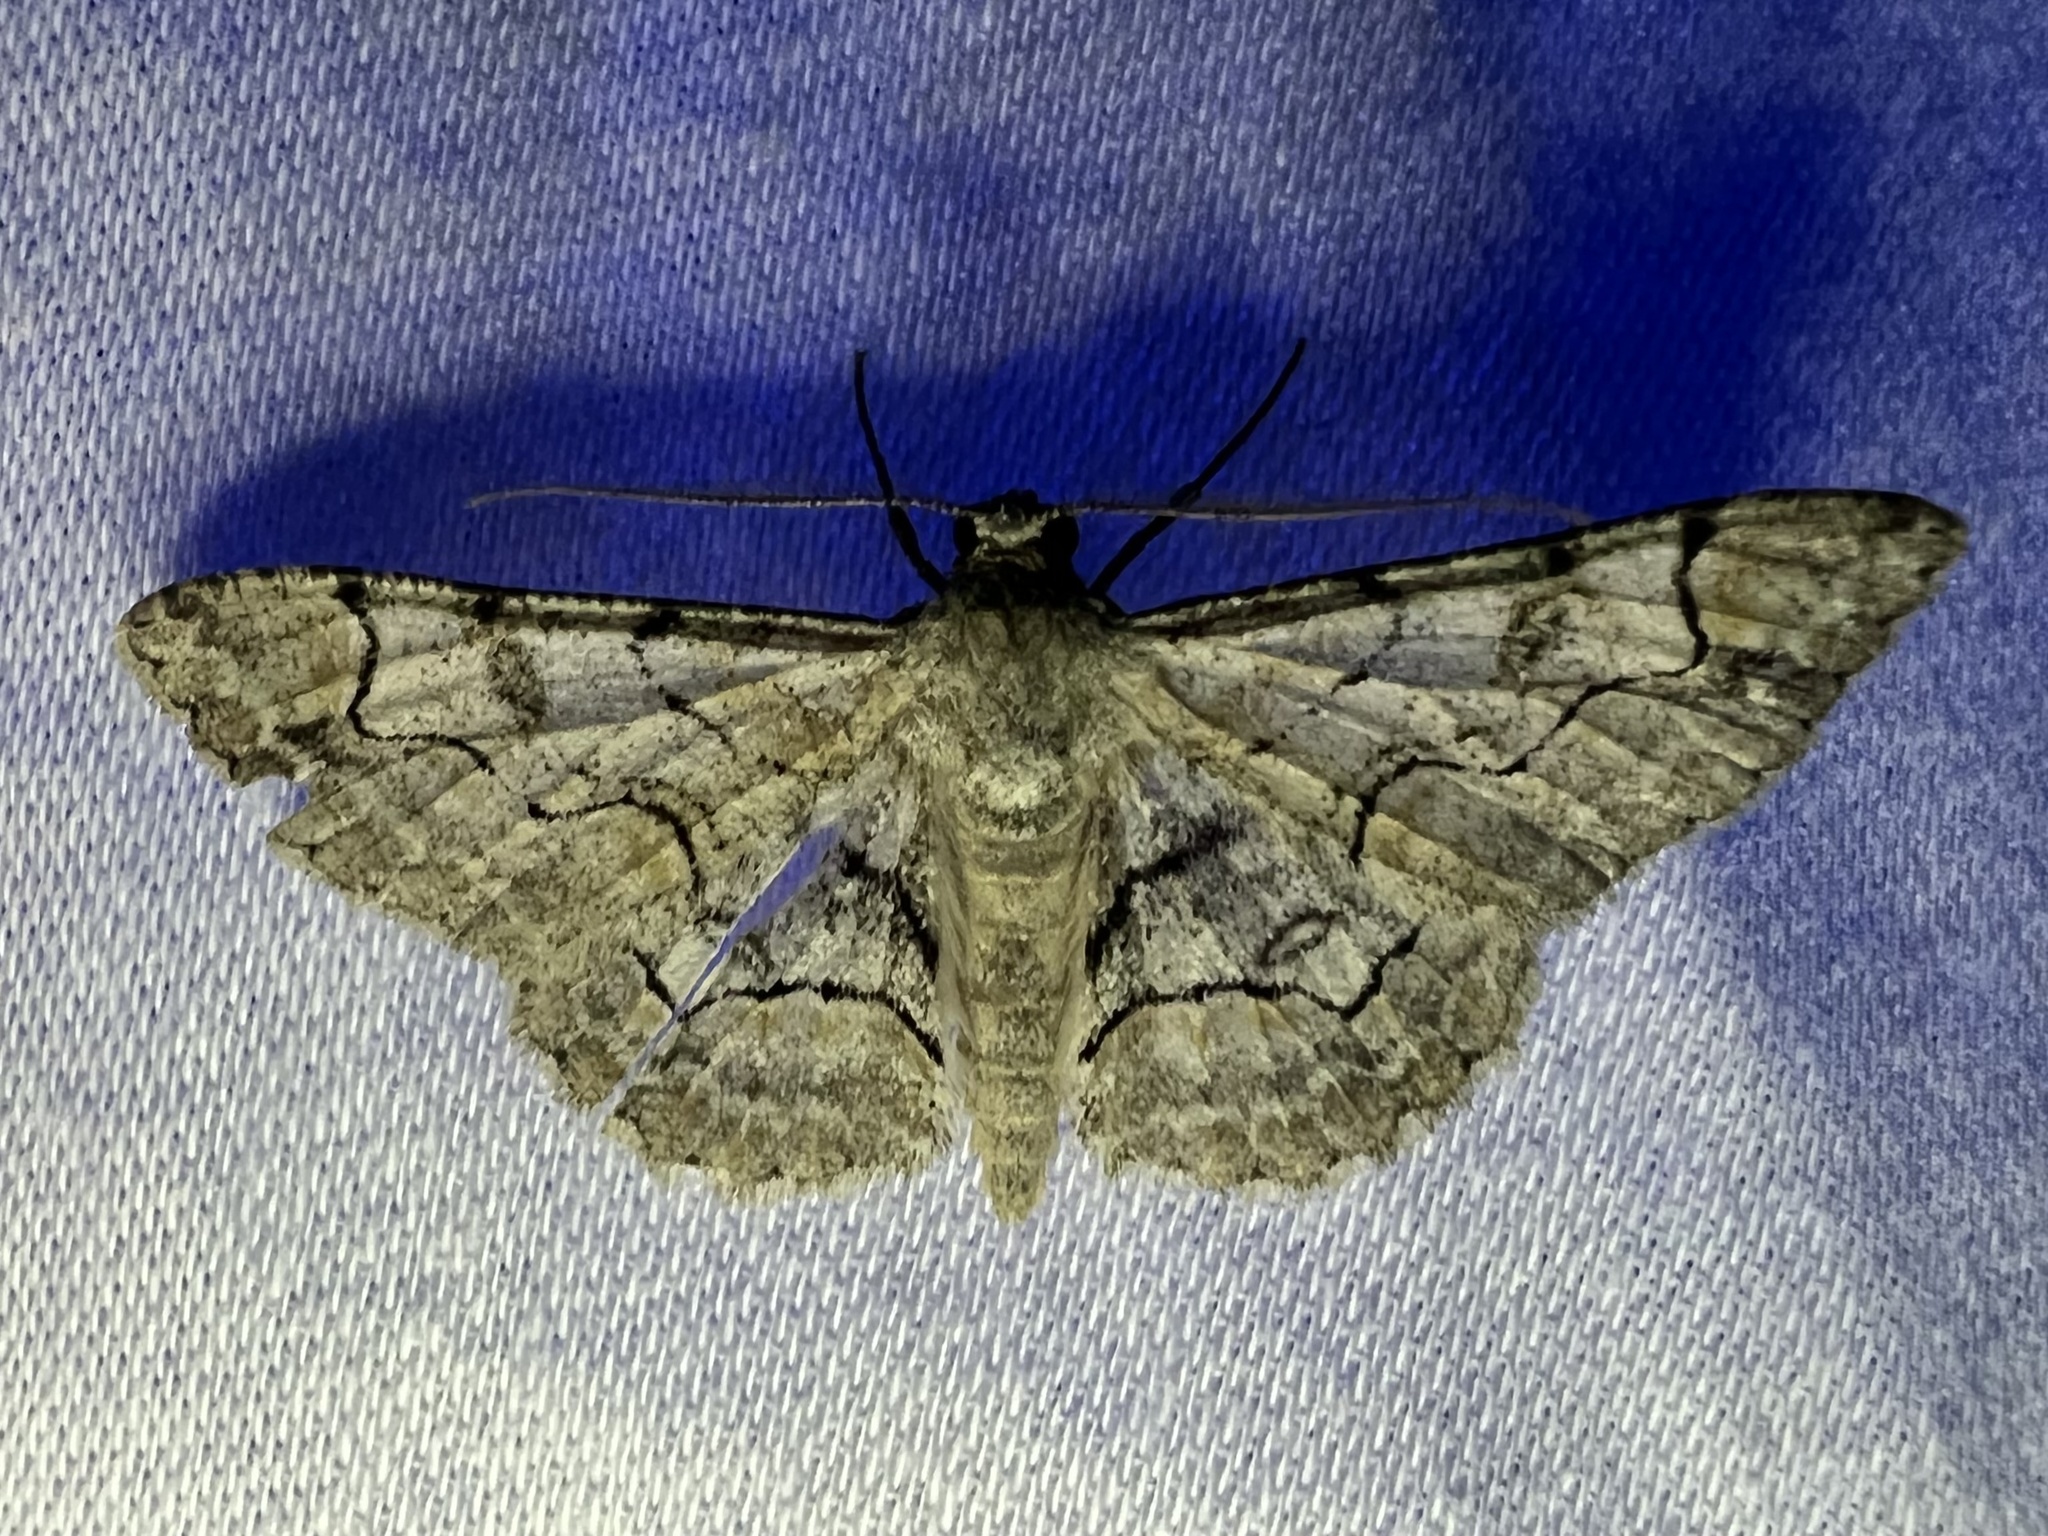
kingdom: Animalia
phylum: Arthropoda
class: Insecta
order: Lepidoptera
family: Geometridae
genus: Iridopsis
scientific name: Iridopsis larvaria
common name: Bent-line gray
